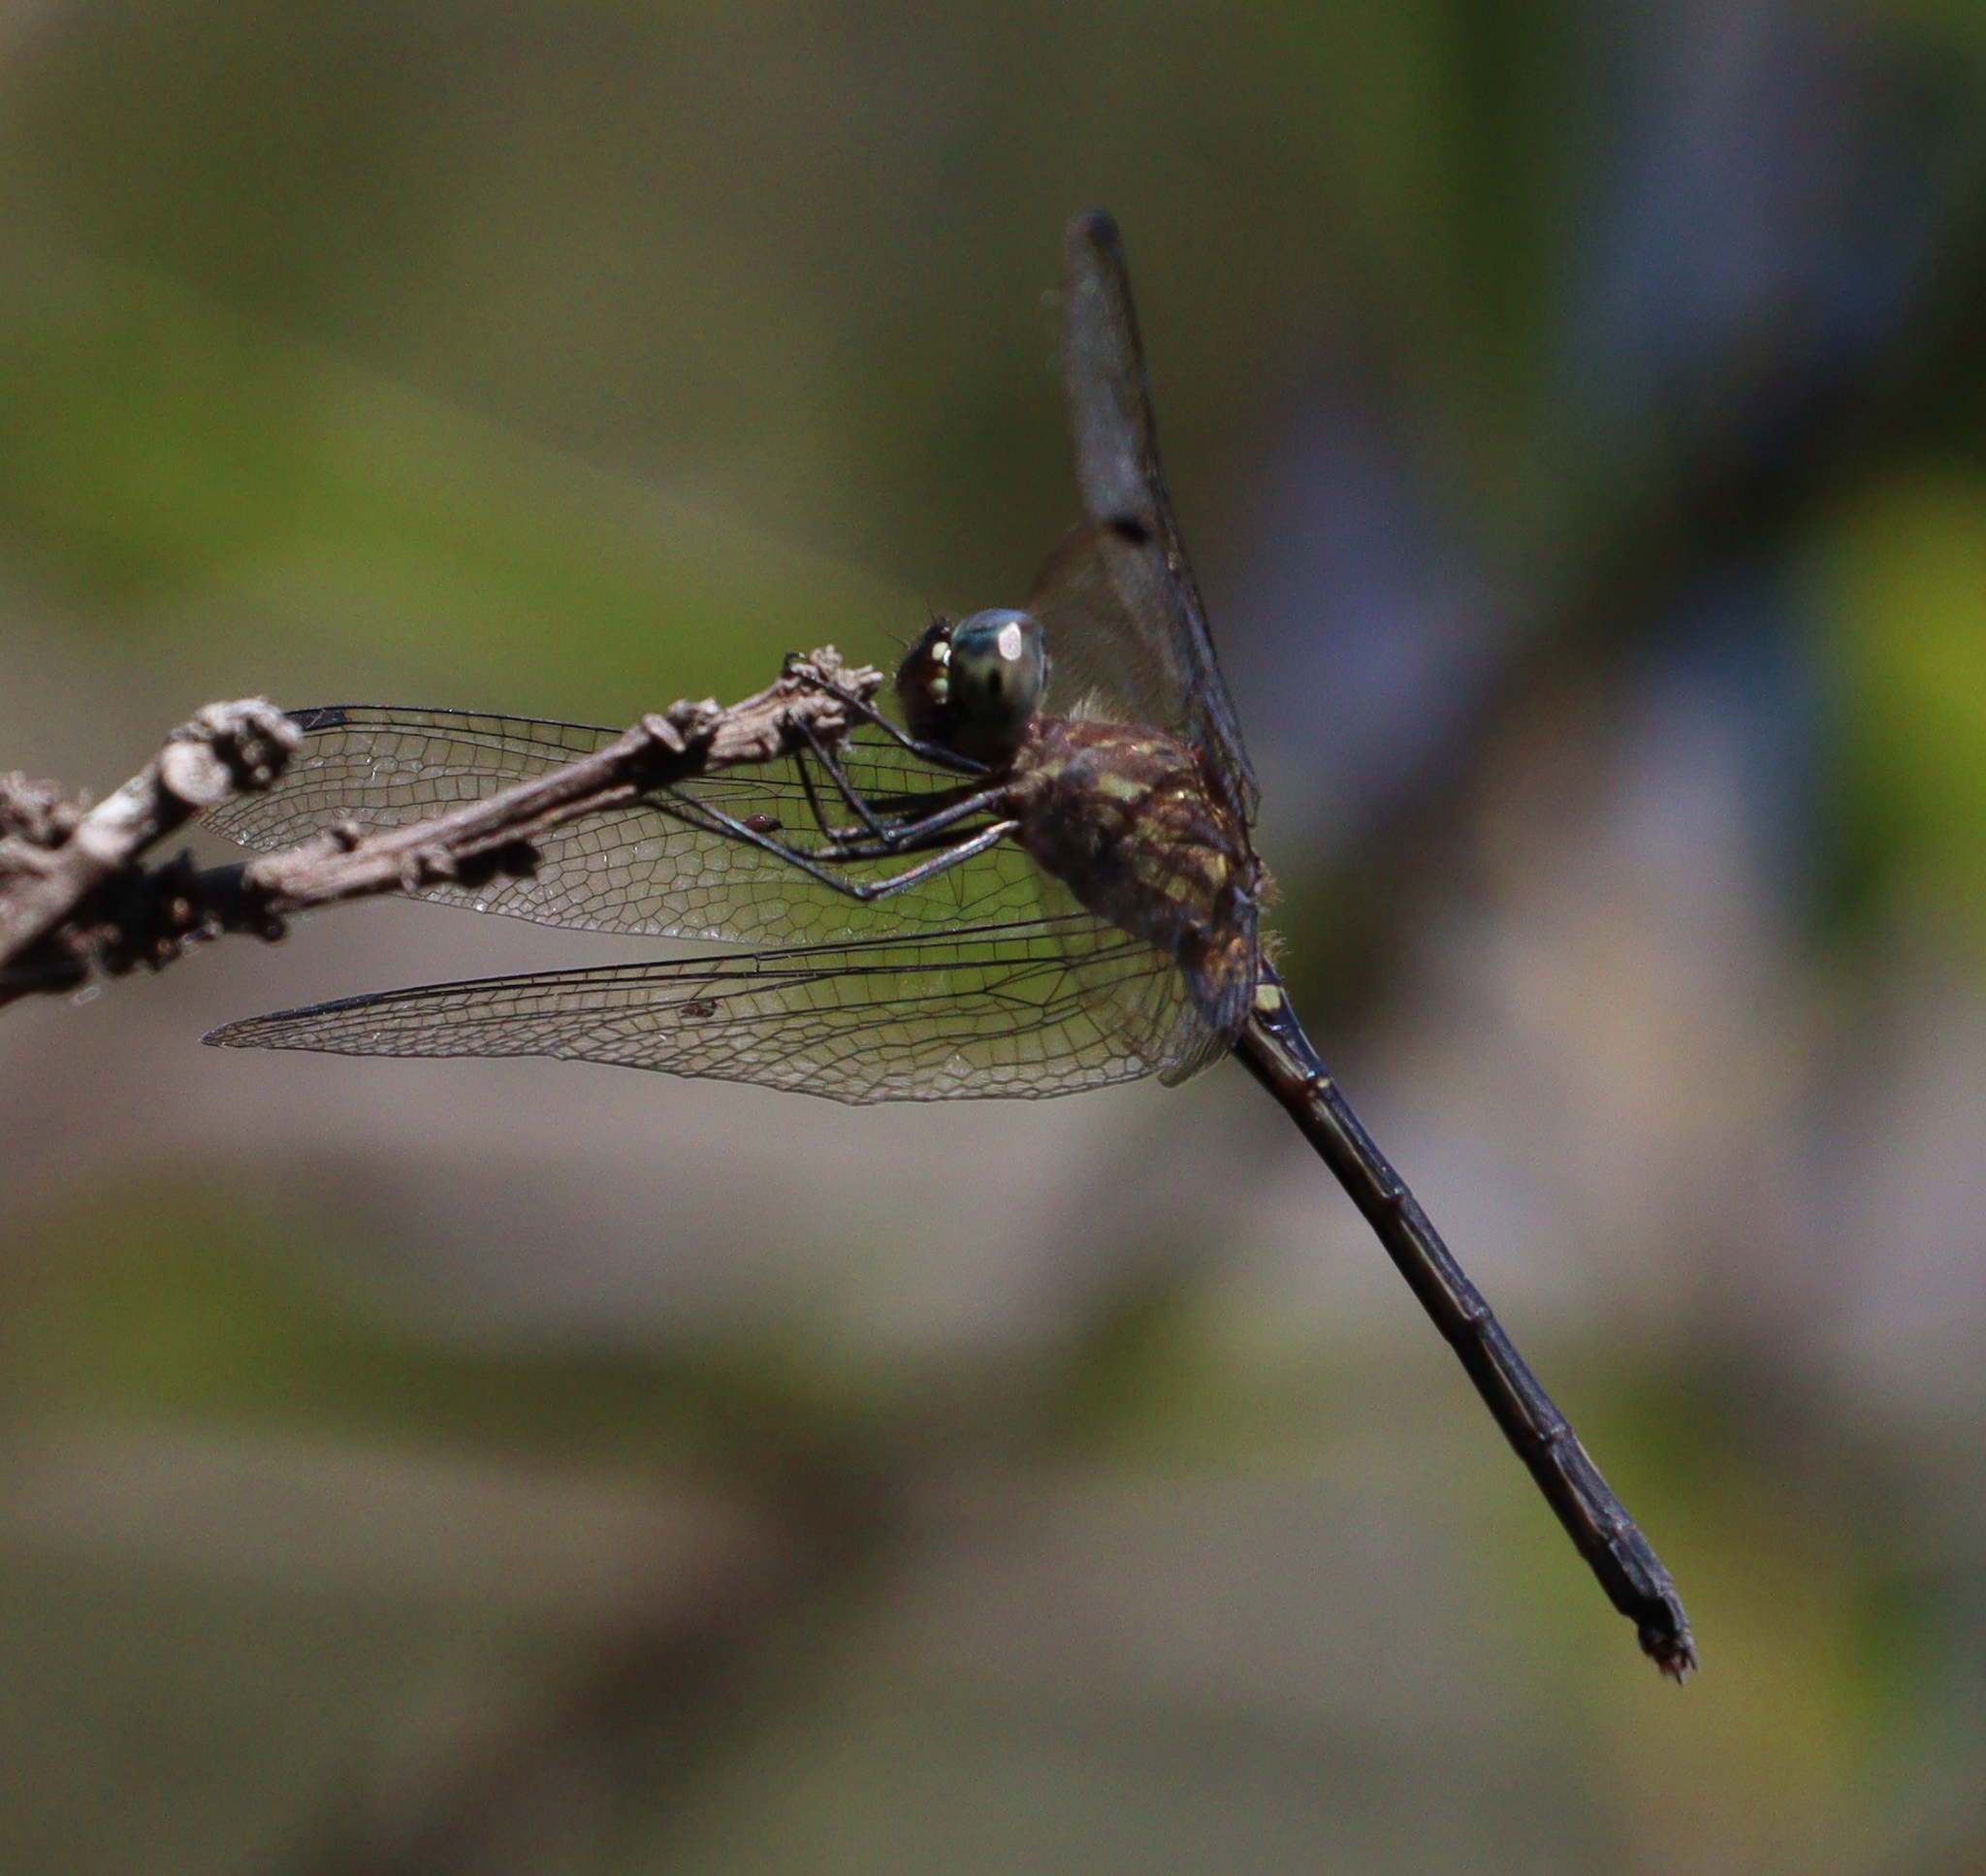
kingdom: Animalia
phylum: Arthropoda
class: Insecta
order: Odonata
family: Libellulidae
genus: Dythemis
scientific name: Dythemis nigra
